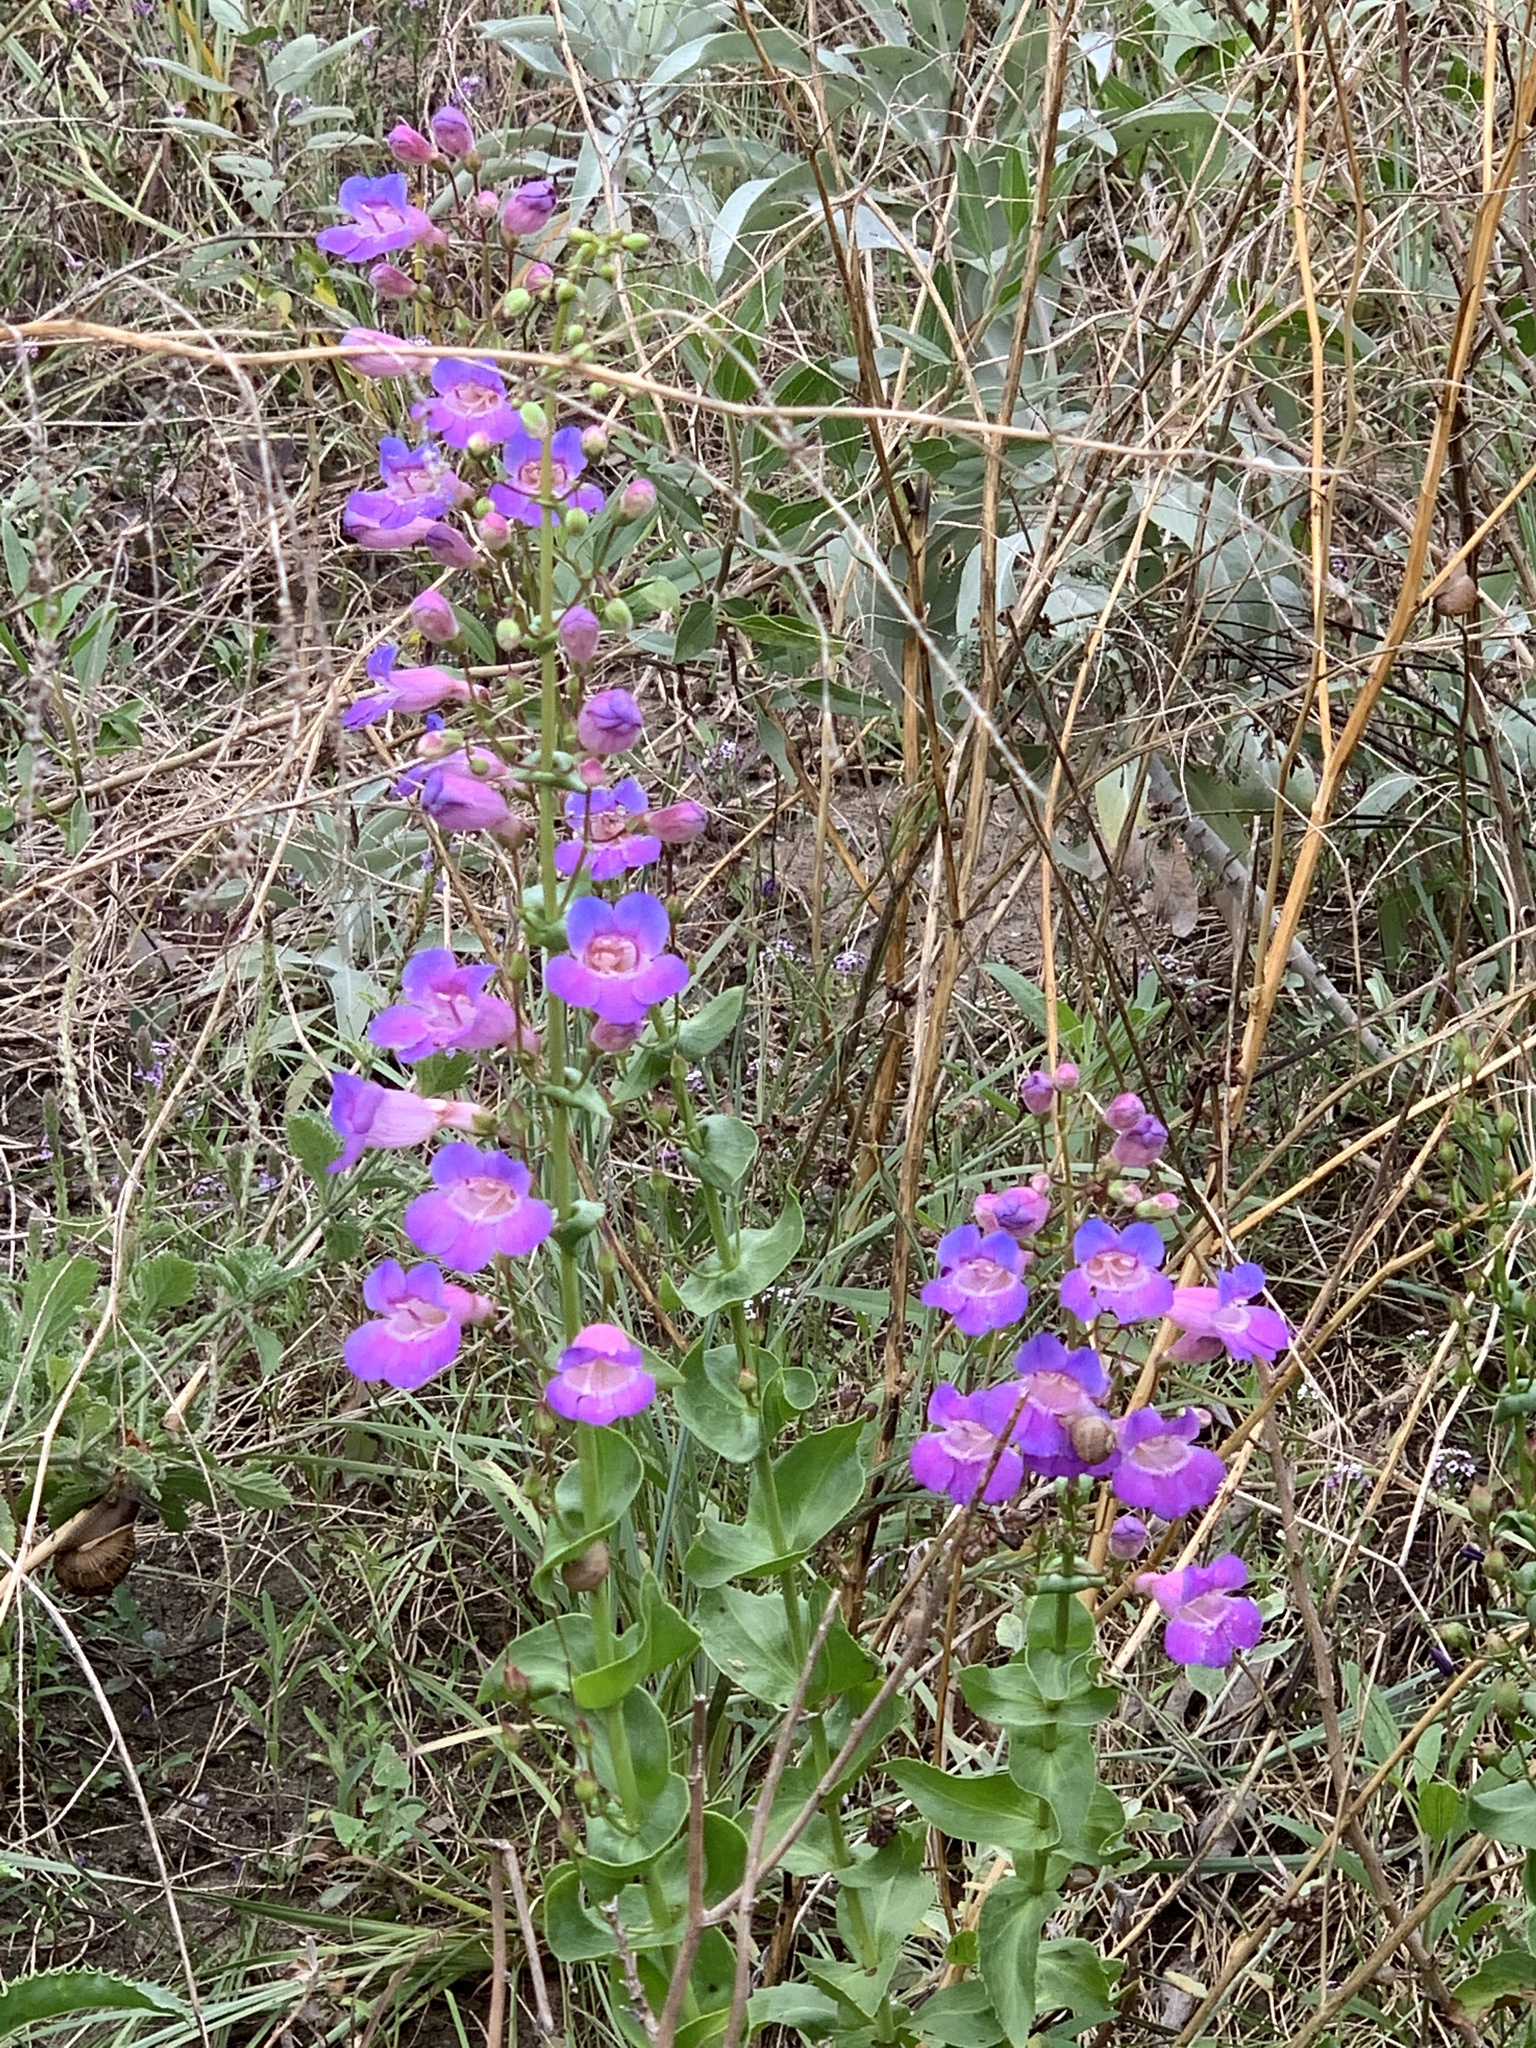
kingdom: Plantae
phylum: Tracheophyta
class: Magnoliopsida
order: Lamiales
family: Plantaginaceae
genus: Penstemon
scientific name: Penstemon spectabilis
